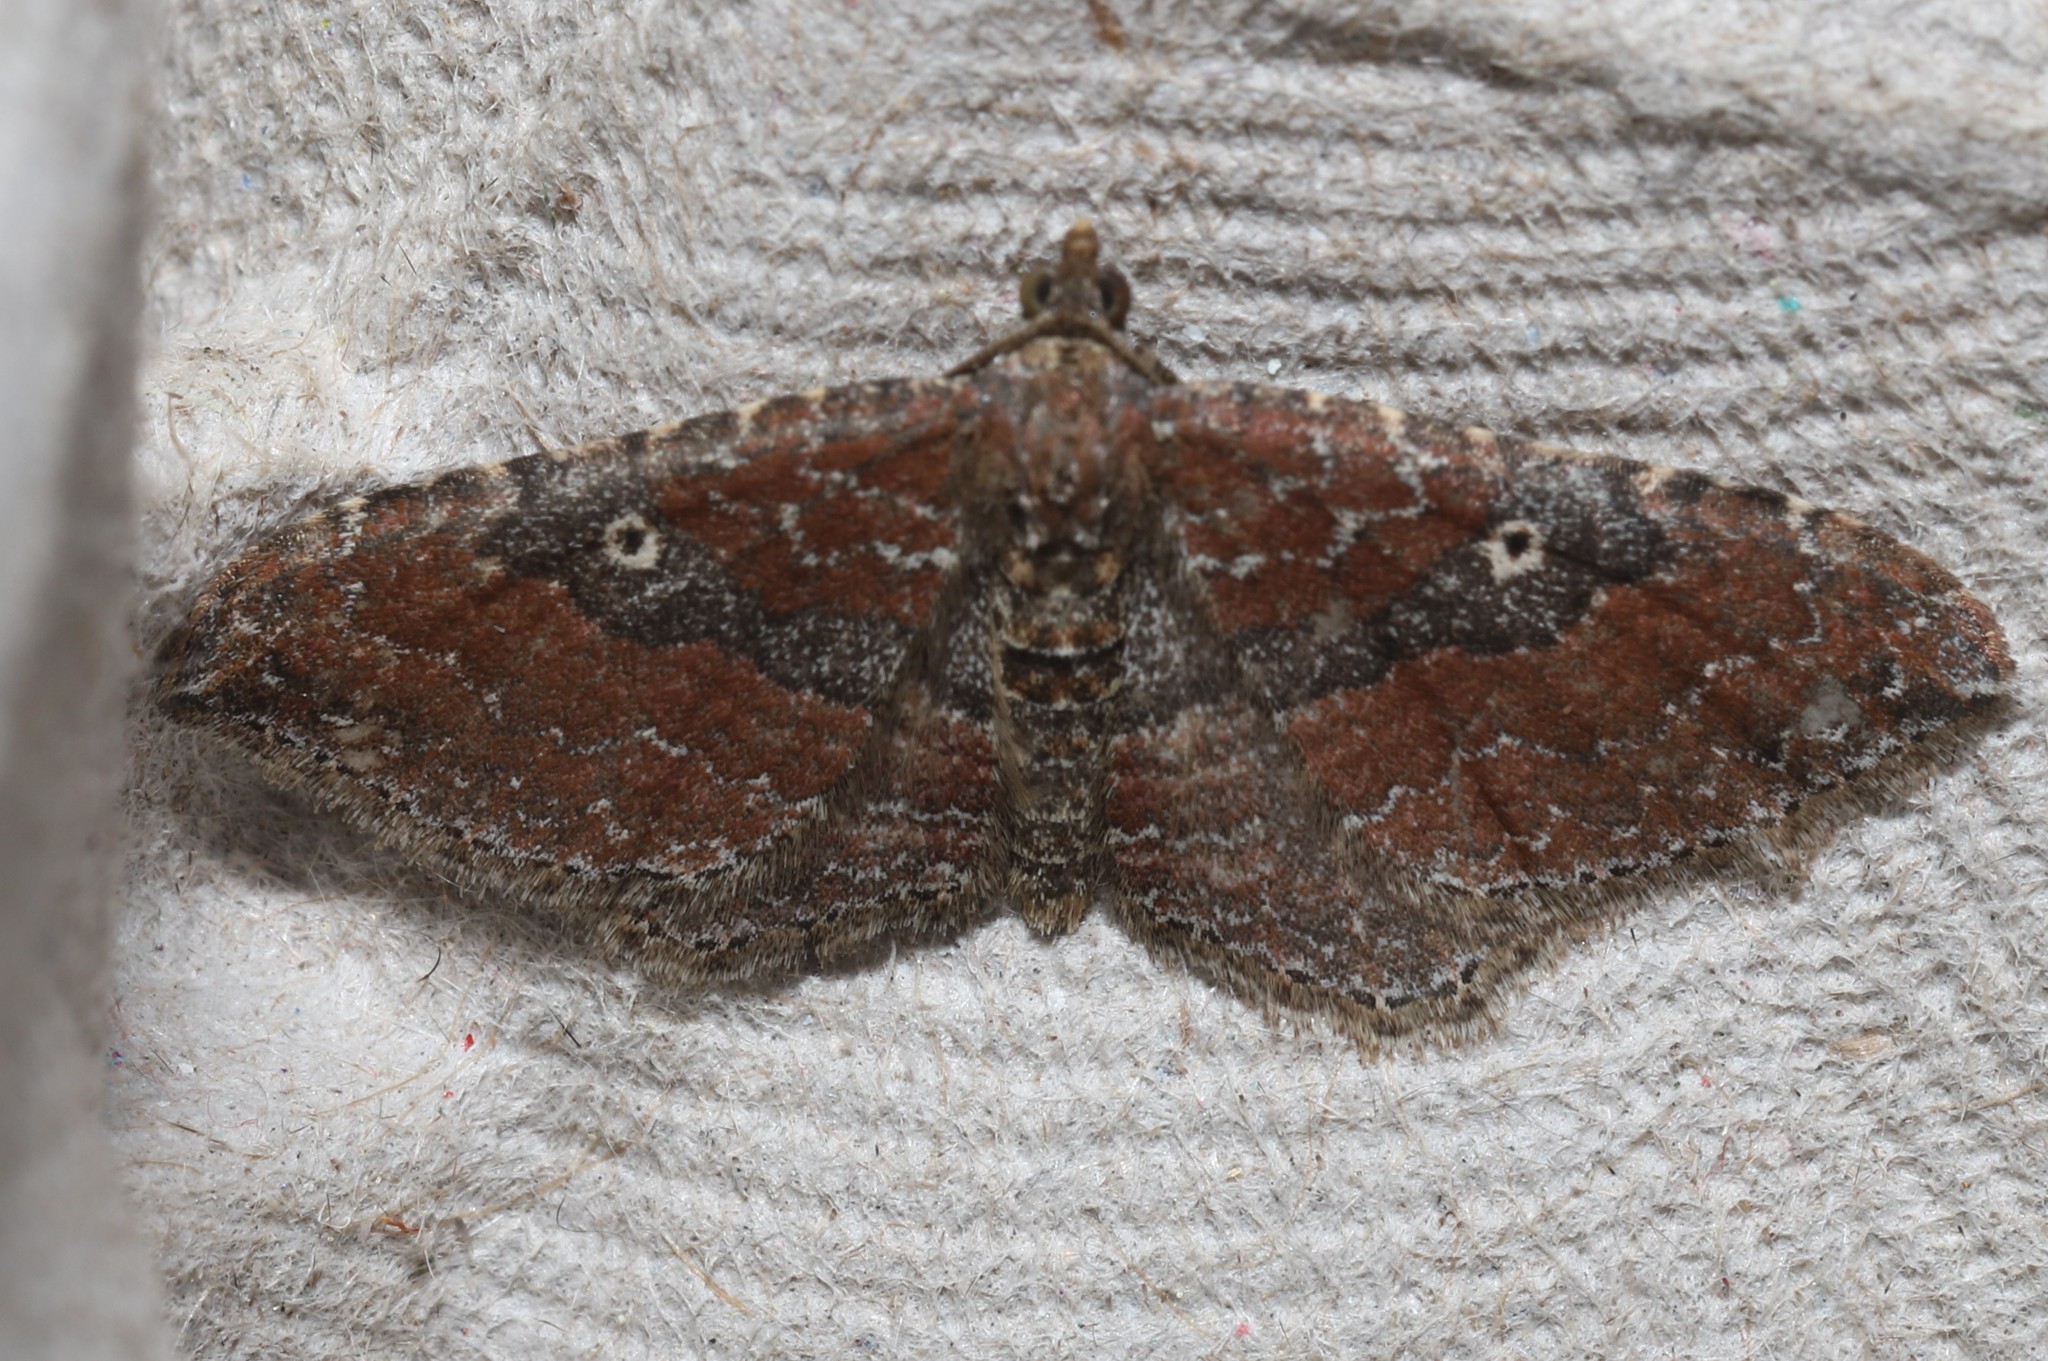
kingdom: Animalia
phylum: Arthropoda
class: Insecta
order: Lepidoptera
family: Geometridae
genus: Orthonama
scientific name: Orthonama obstipata
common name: The gem
